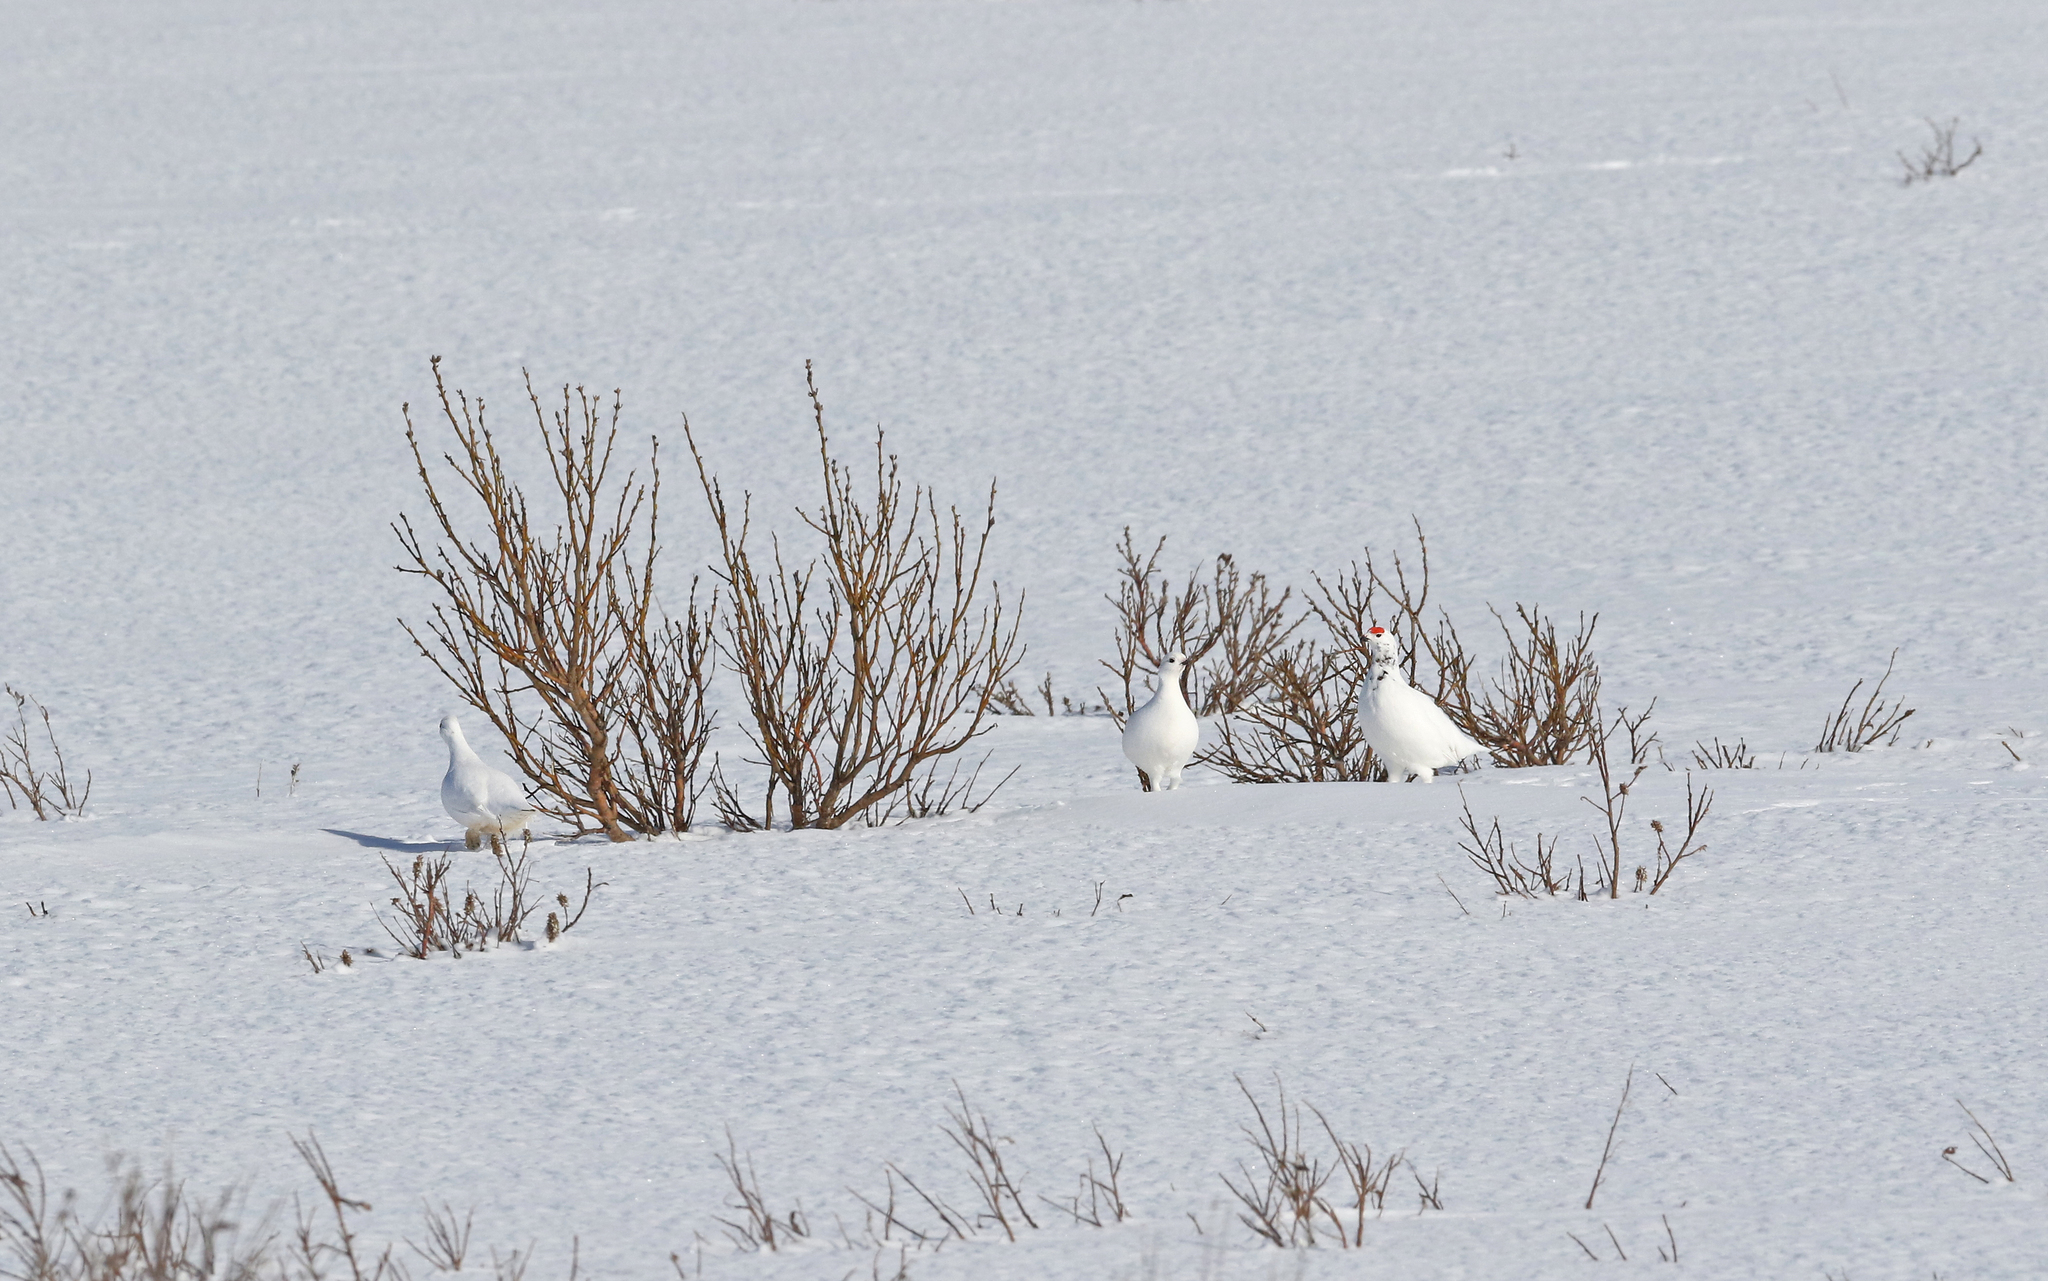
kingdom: Animalia
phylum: Chordata
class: Aves
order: Galliformes
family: Phasianidae
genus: Lagopus
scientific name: Lagopus lagopus
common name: Willow ptarmigan
